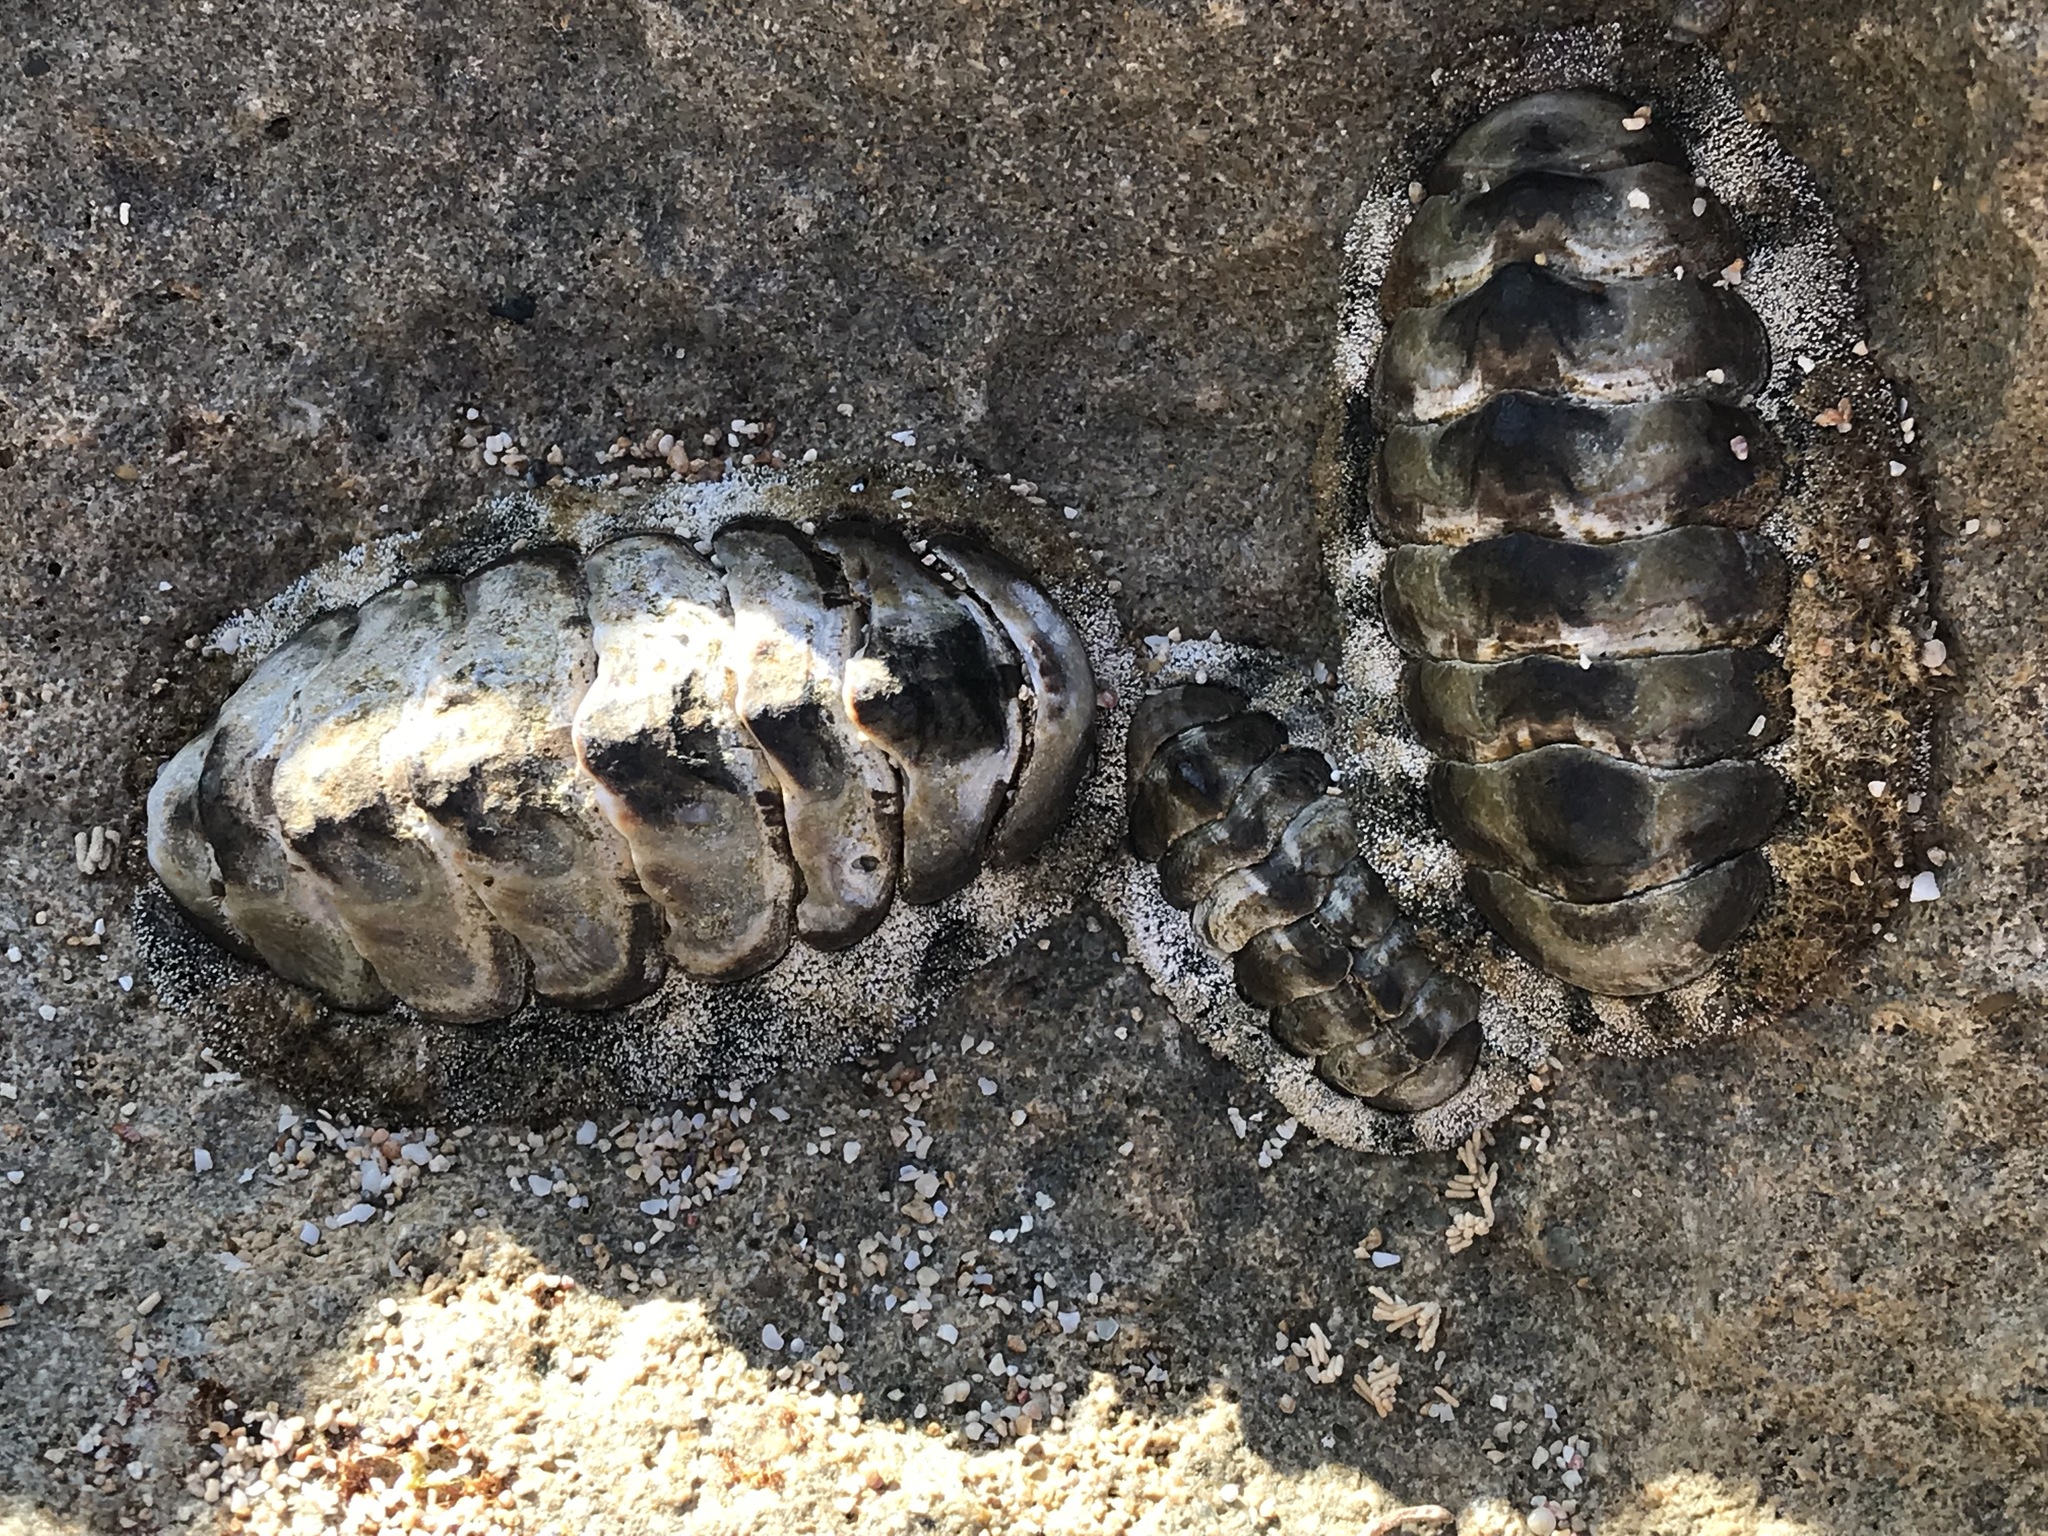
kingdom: Animalia
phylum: Mollusca
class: Polyplacophora
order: Chitonida
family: Chitonidae
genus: Acanthopleura
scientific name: Acanthopleura granulata
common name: West indian fuzzy chiton
